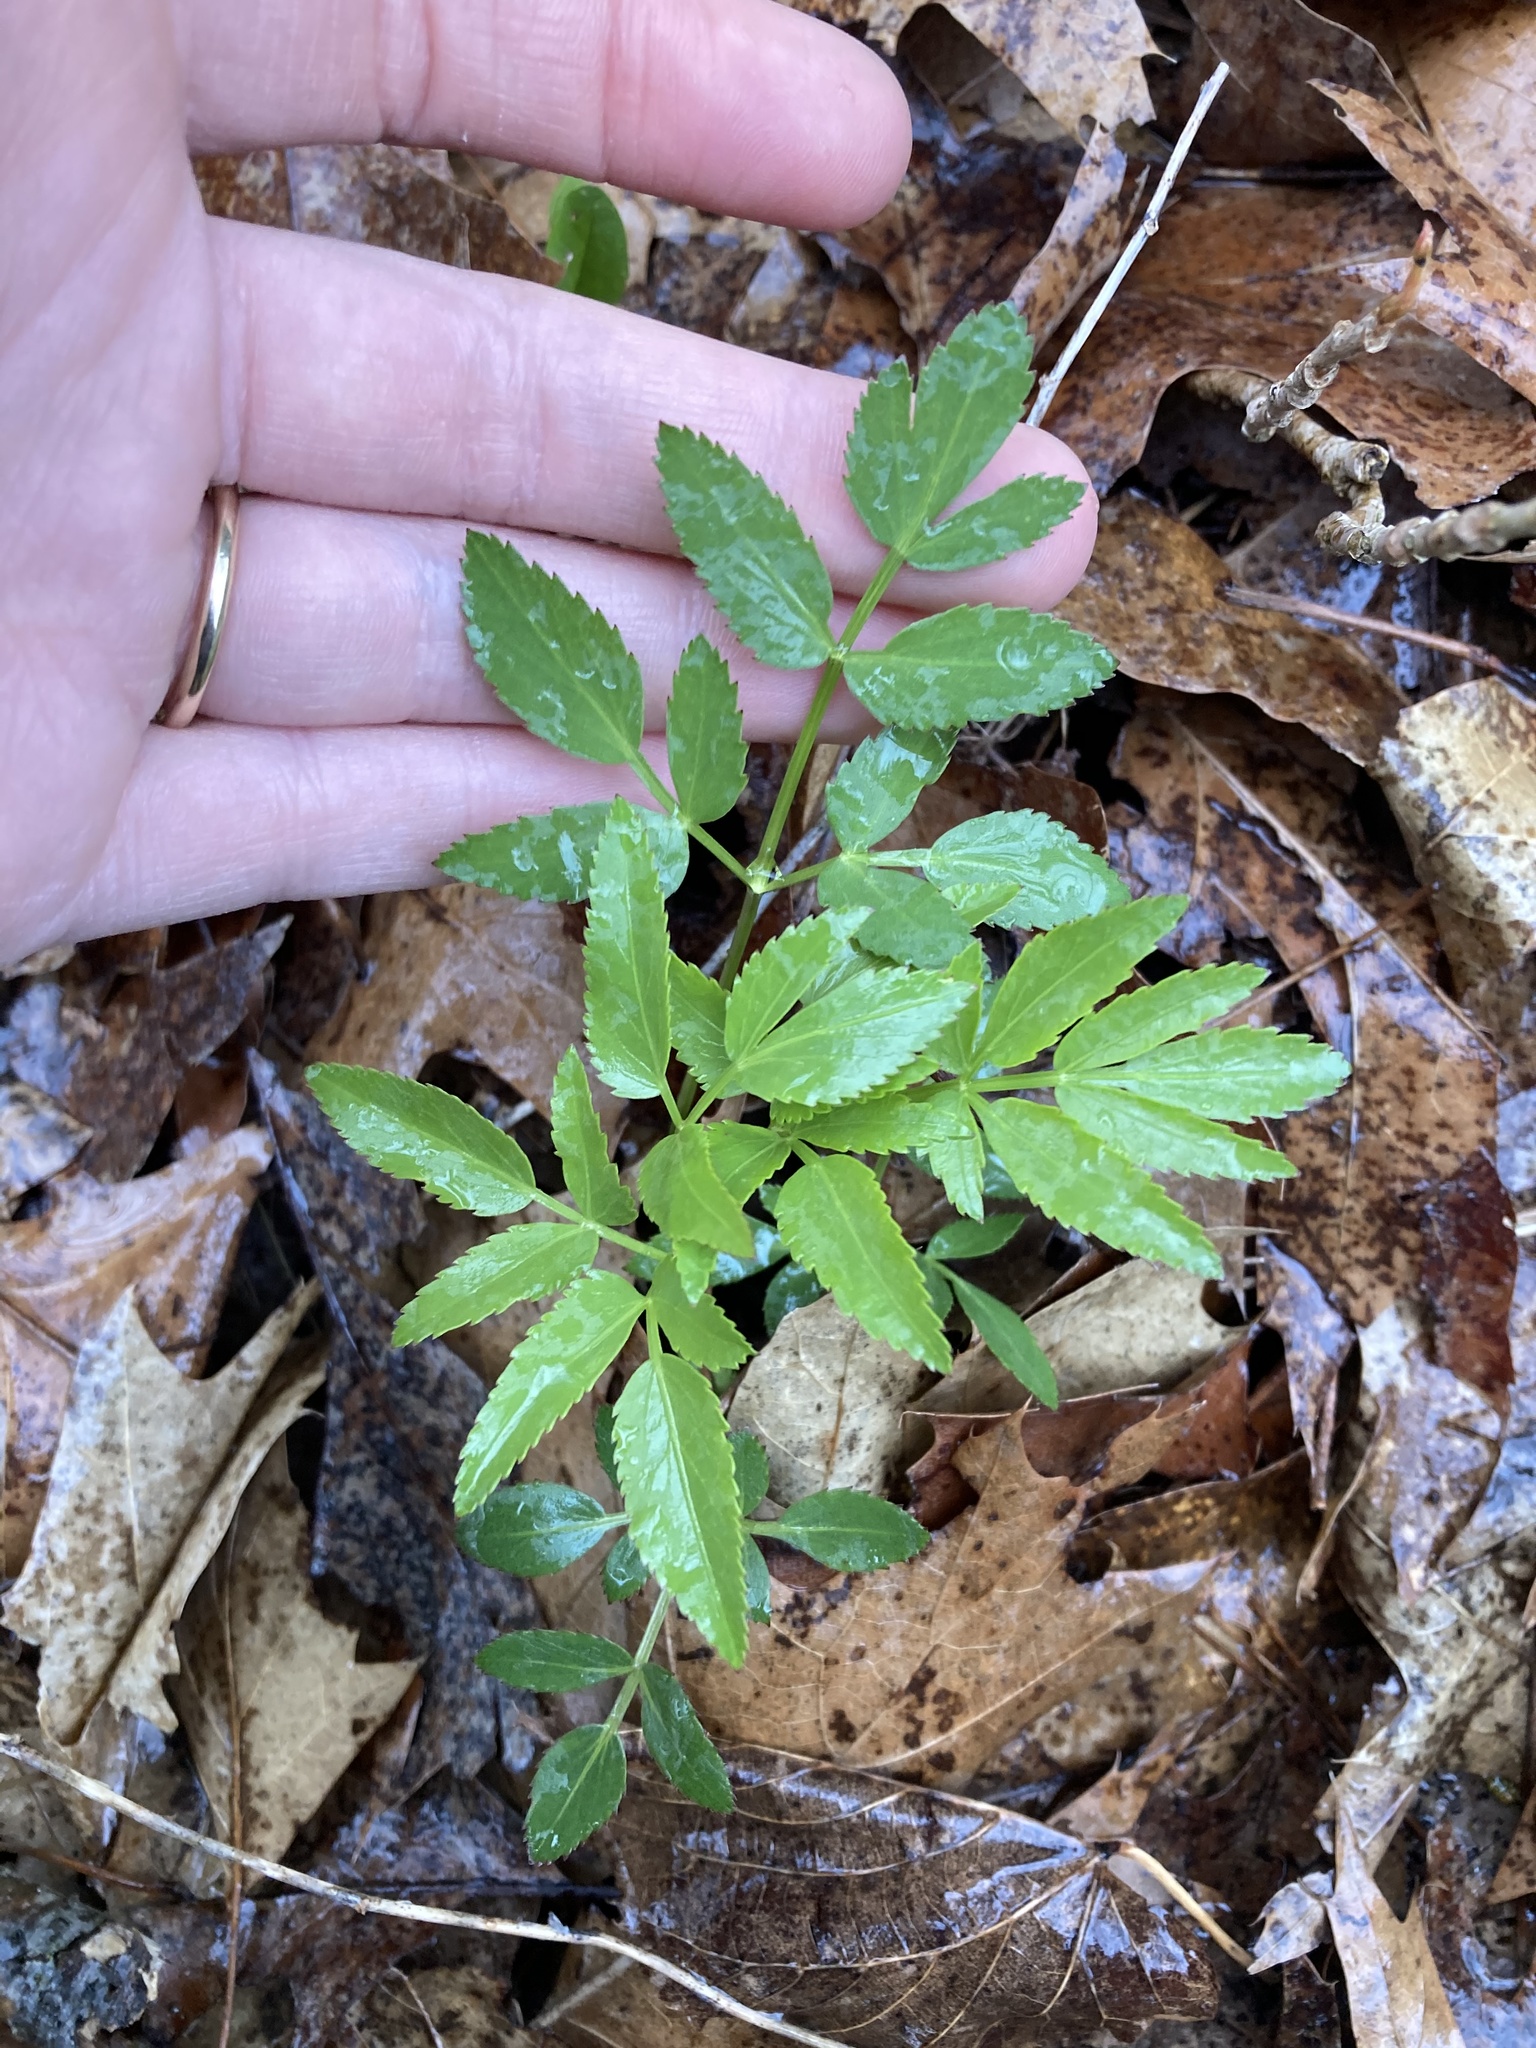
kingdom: Plantae
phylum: Tracheophyta
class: Magnoliopsida
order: Apiales
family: Apiaceae
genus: Zizia
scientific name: Zizia aurea
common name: Golden alexanders
